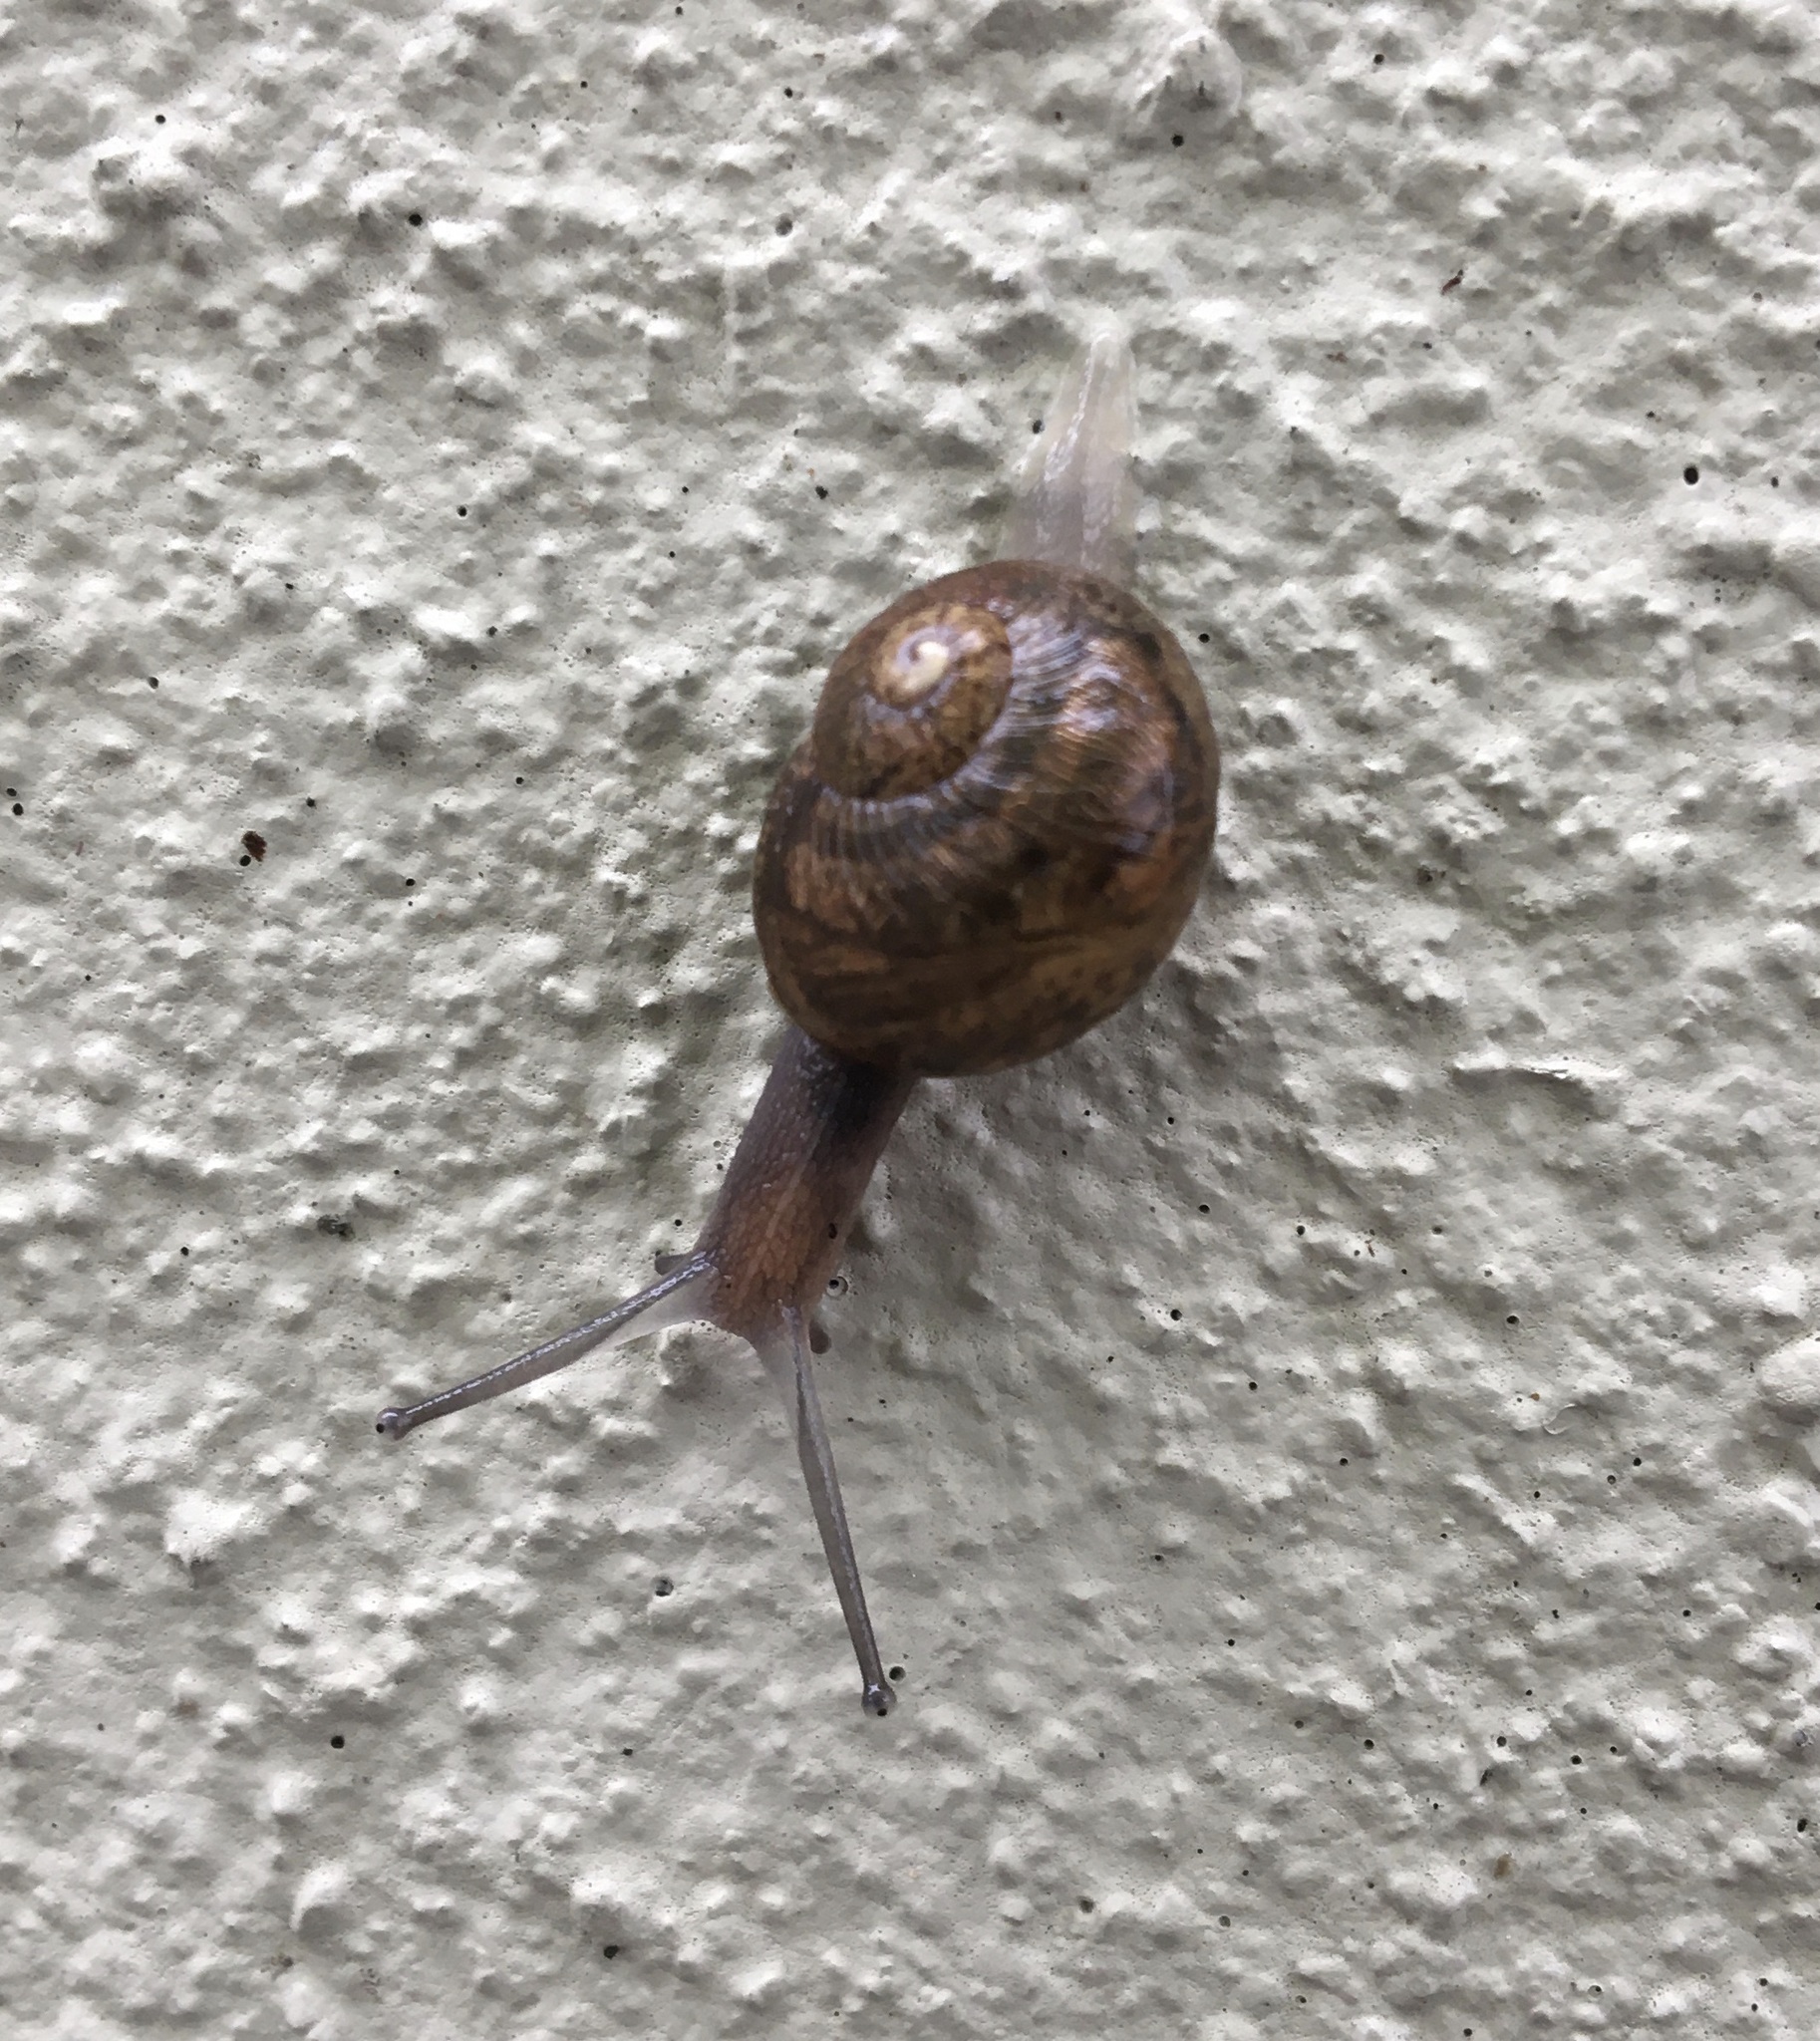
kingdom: Animalia
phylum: Mollusca
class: Gastropoda
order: Stylommatophora
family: Helicidae
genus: Cornu
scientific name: Cornu aspersum
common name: Brown garden snail
